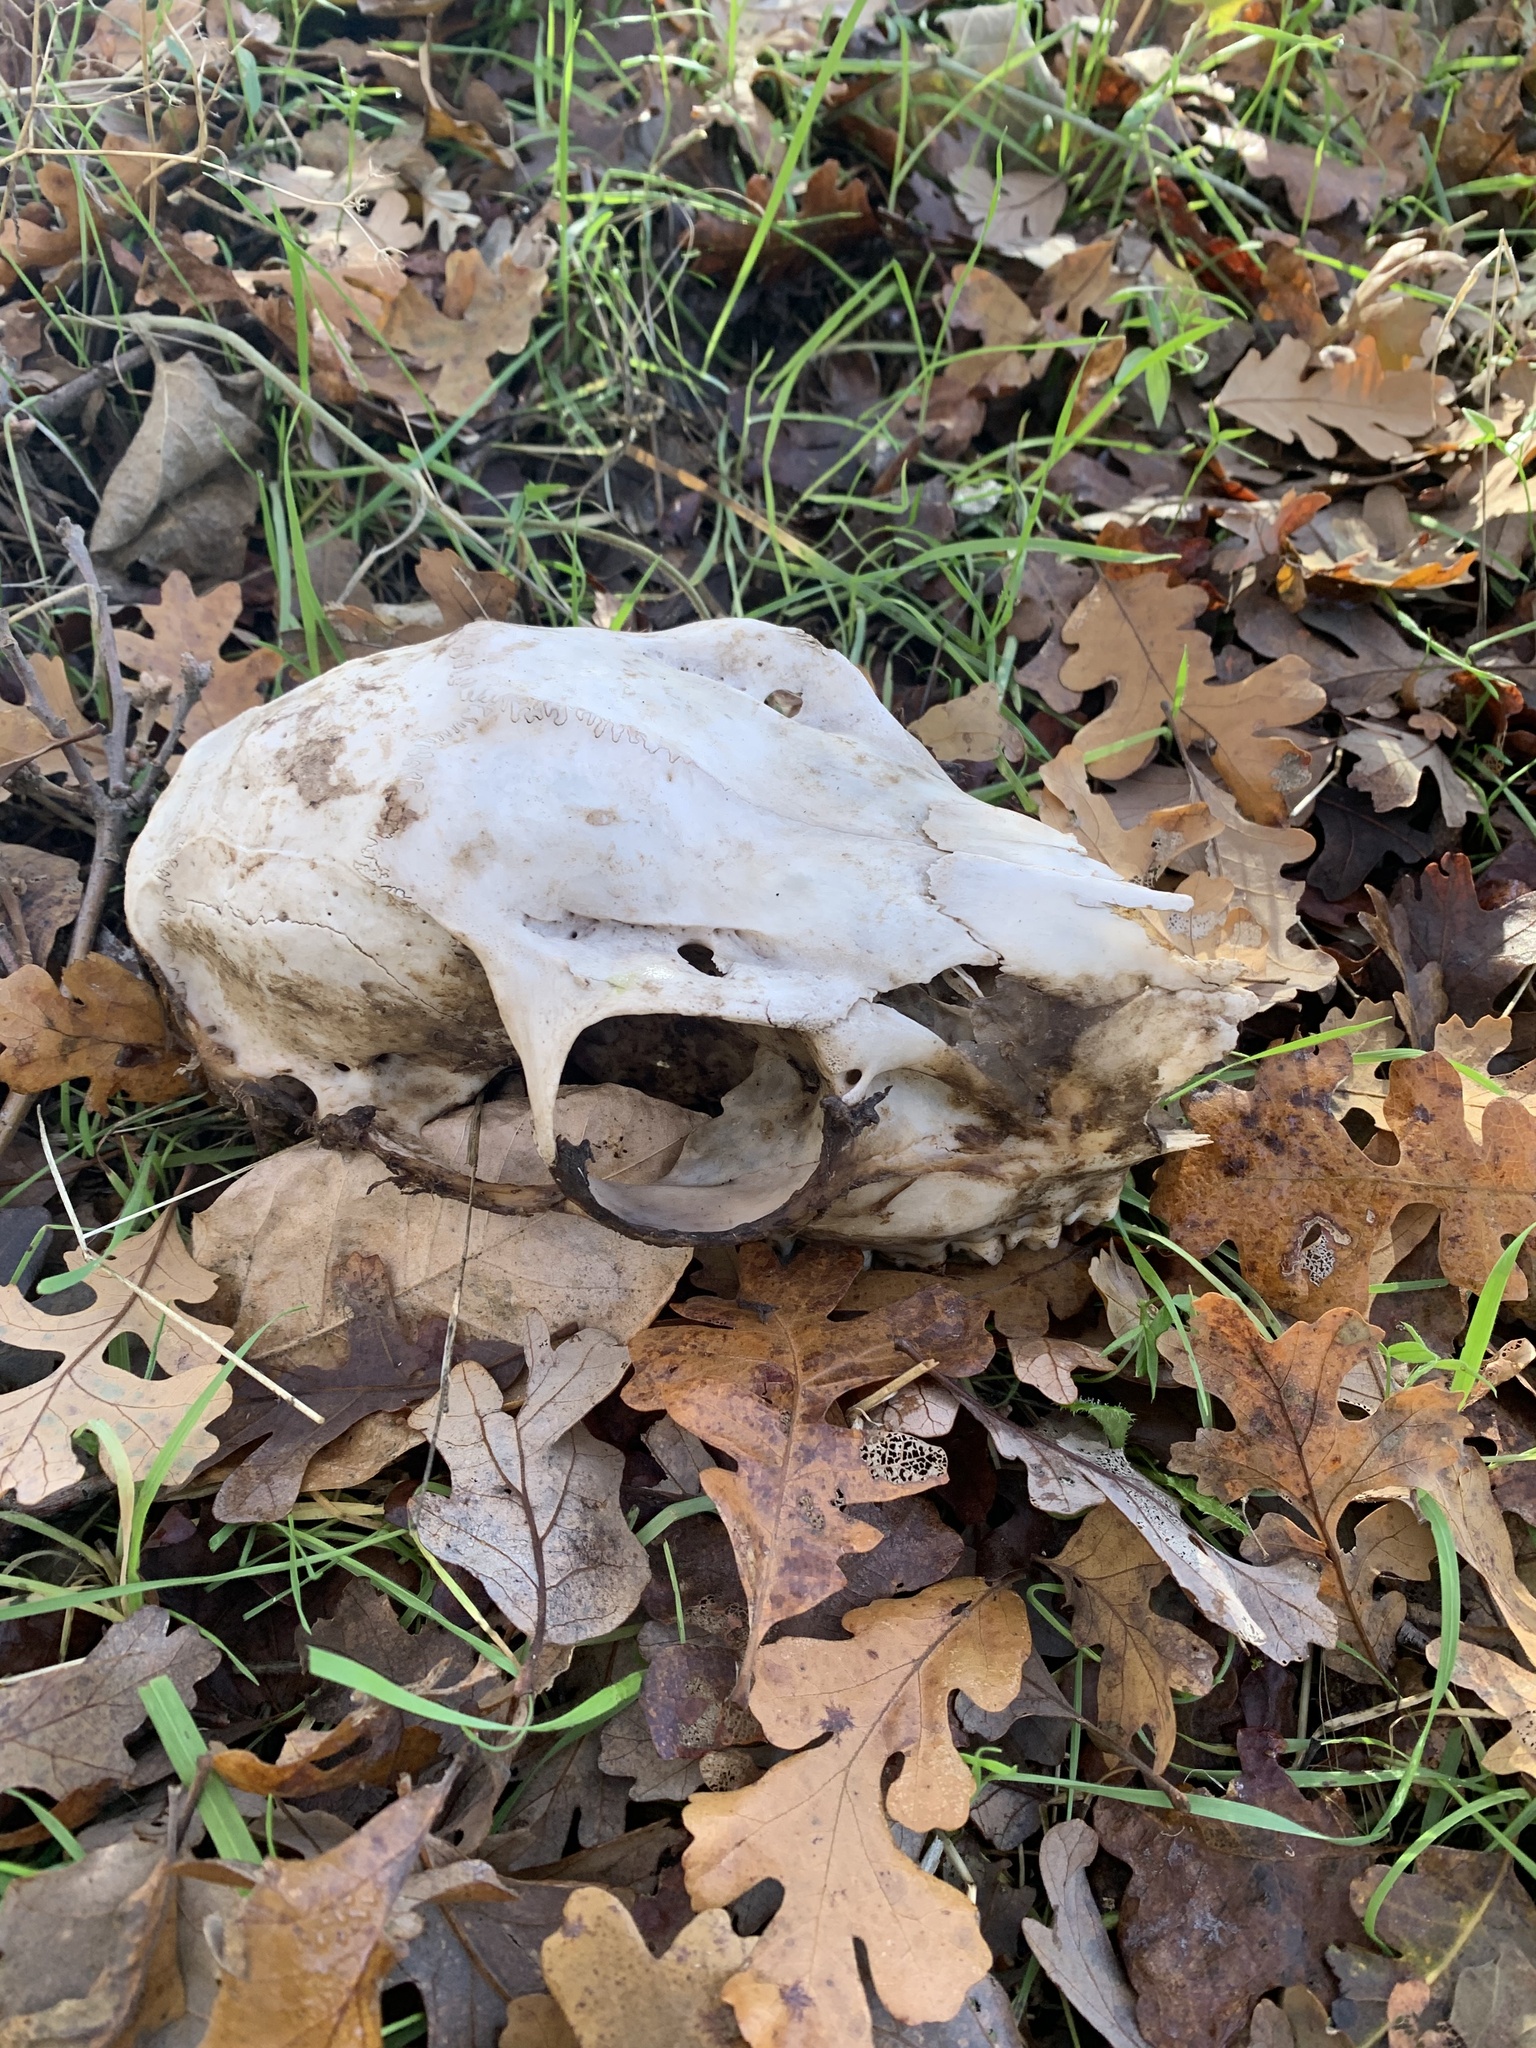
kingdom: Animalia
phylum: Chordata
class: Mammalia
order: Artiodactyla
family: Cervidae
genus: Odocoileus
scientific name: Odocoileus hemionus
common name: Mule deer
